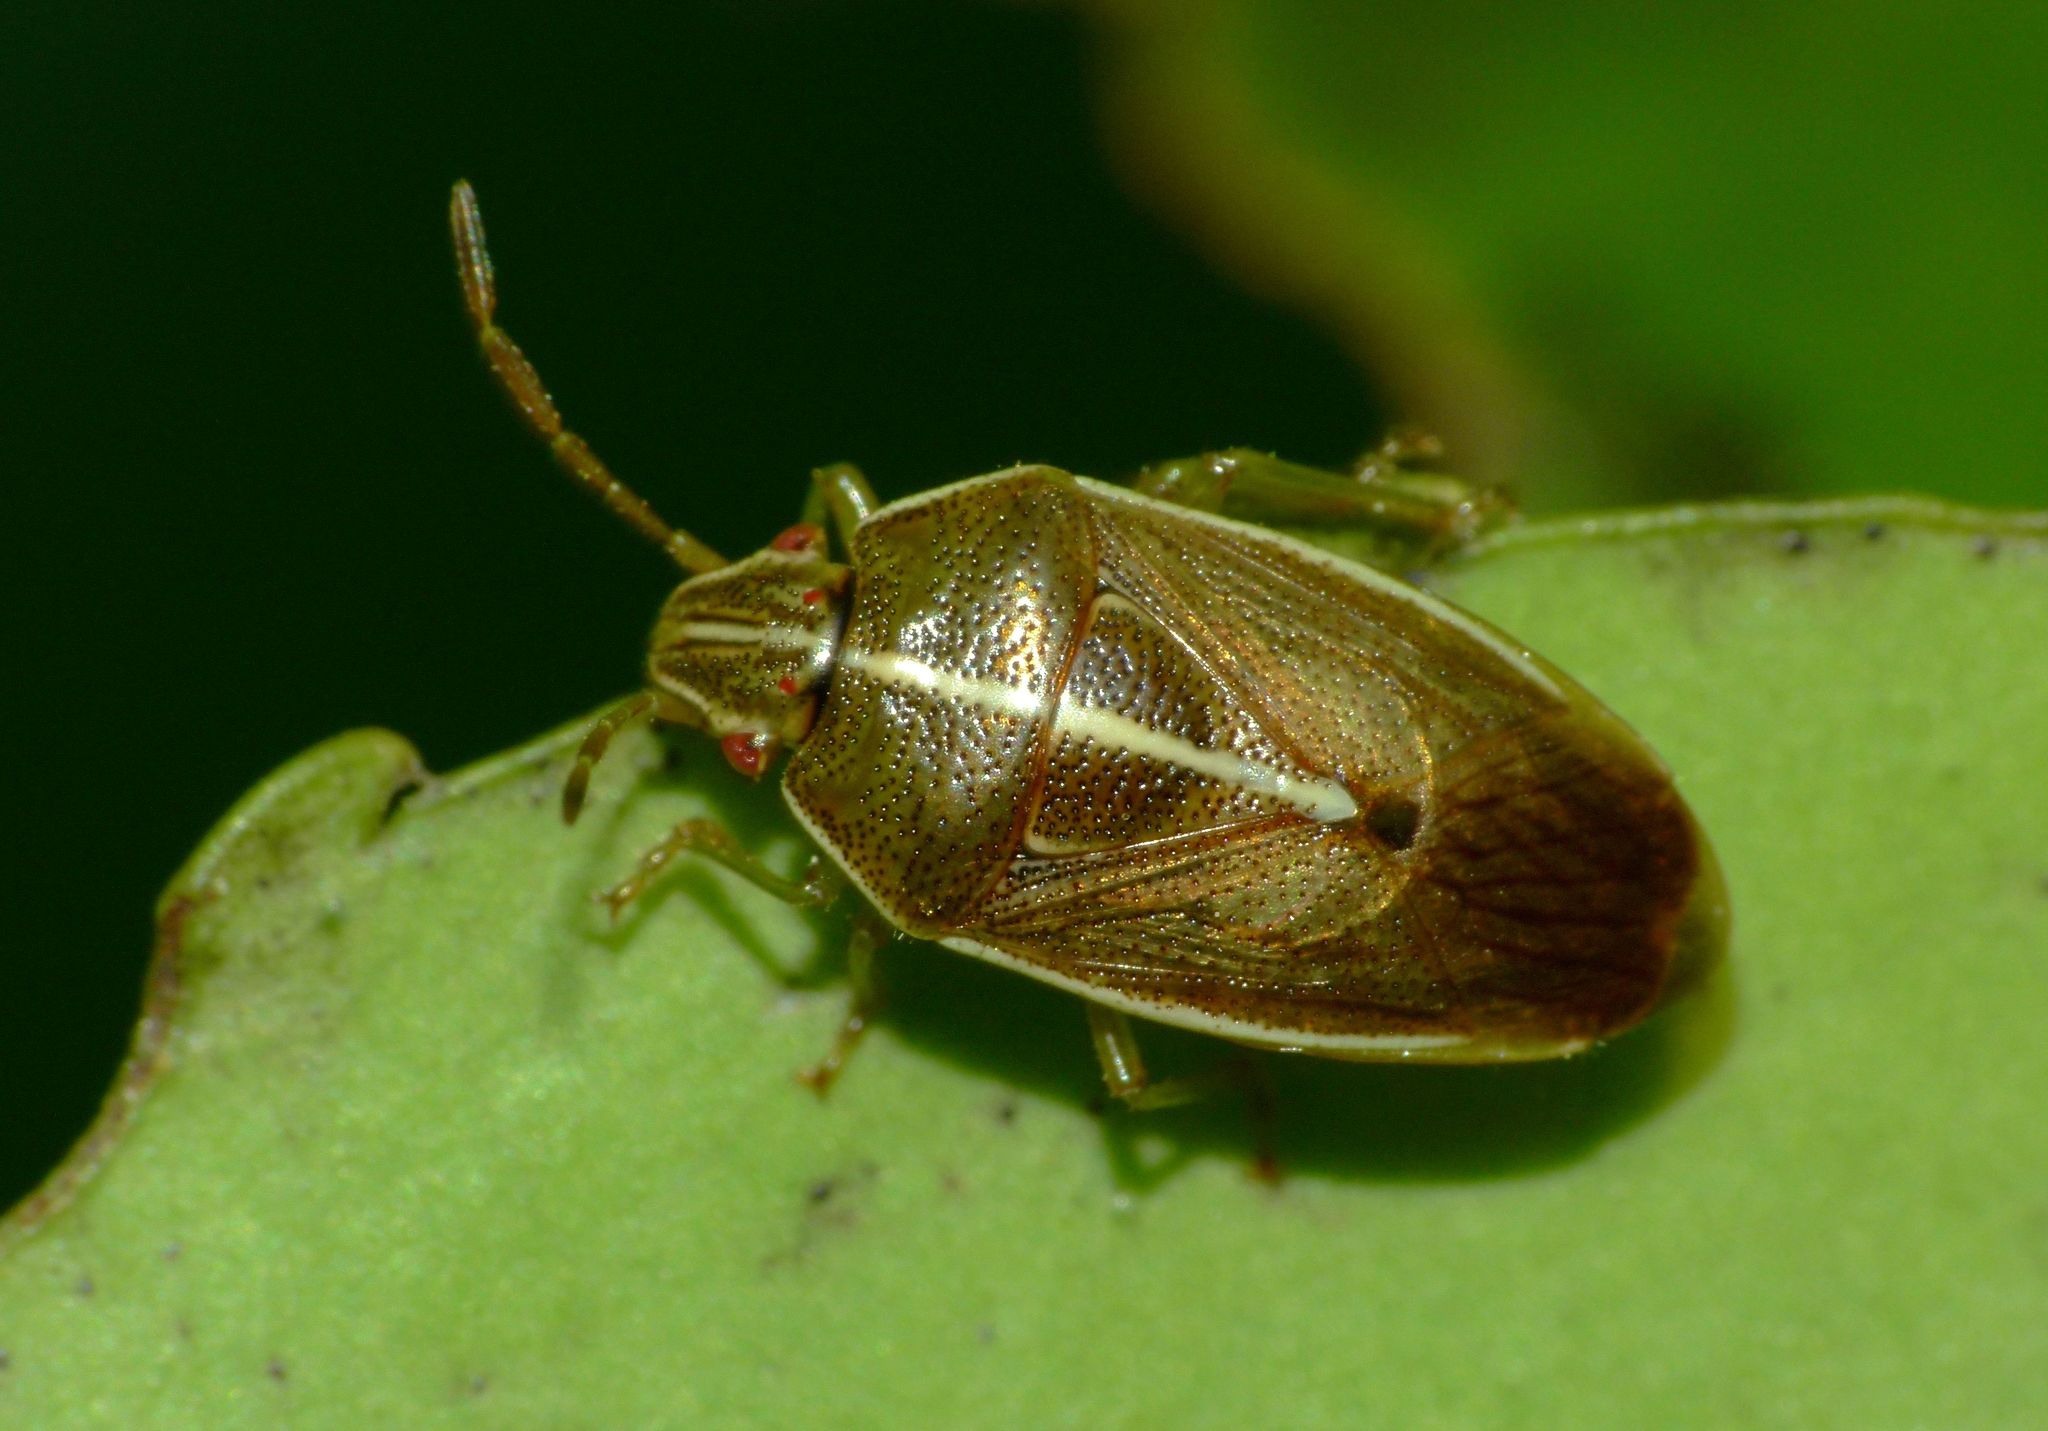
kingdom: Animalia
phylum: Arthropoda
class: Insecta
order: Hemiptera
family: Acanthosomatidae
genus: Rhopalimorpha
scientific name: Rhopalimorpha lineolaris
